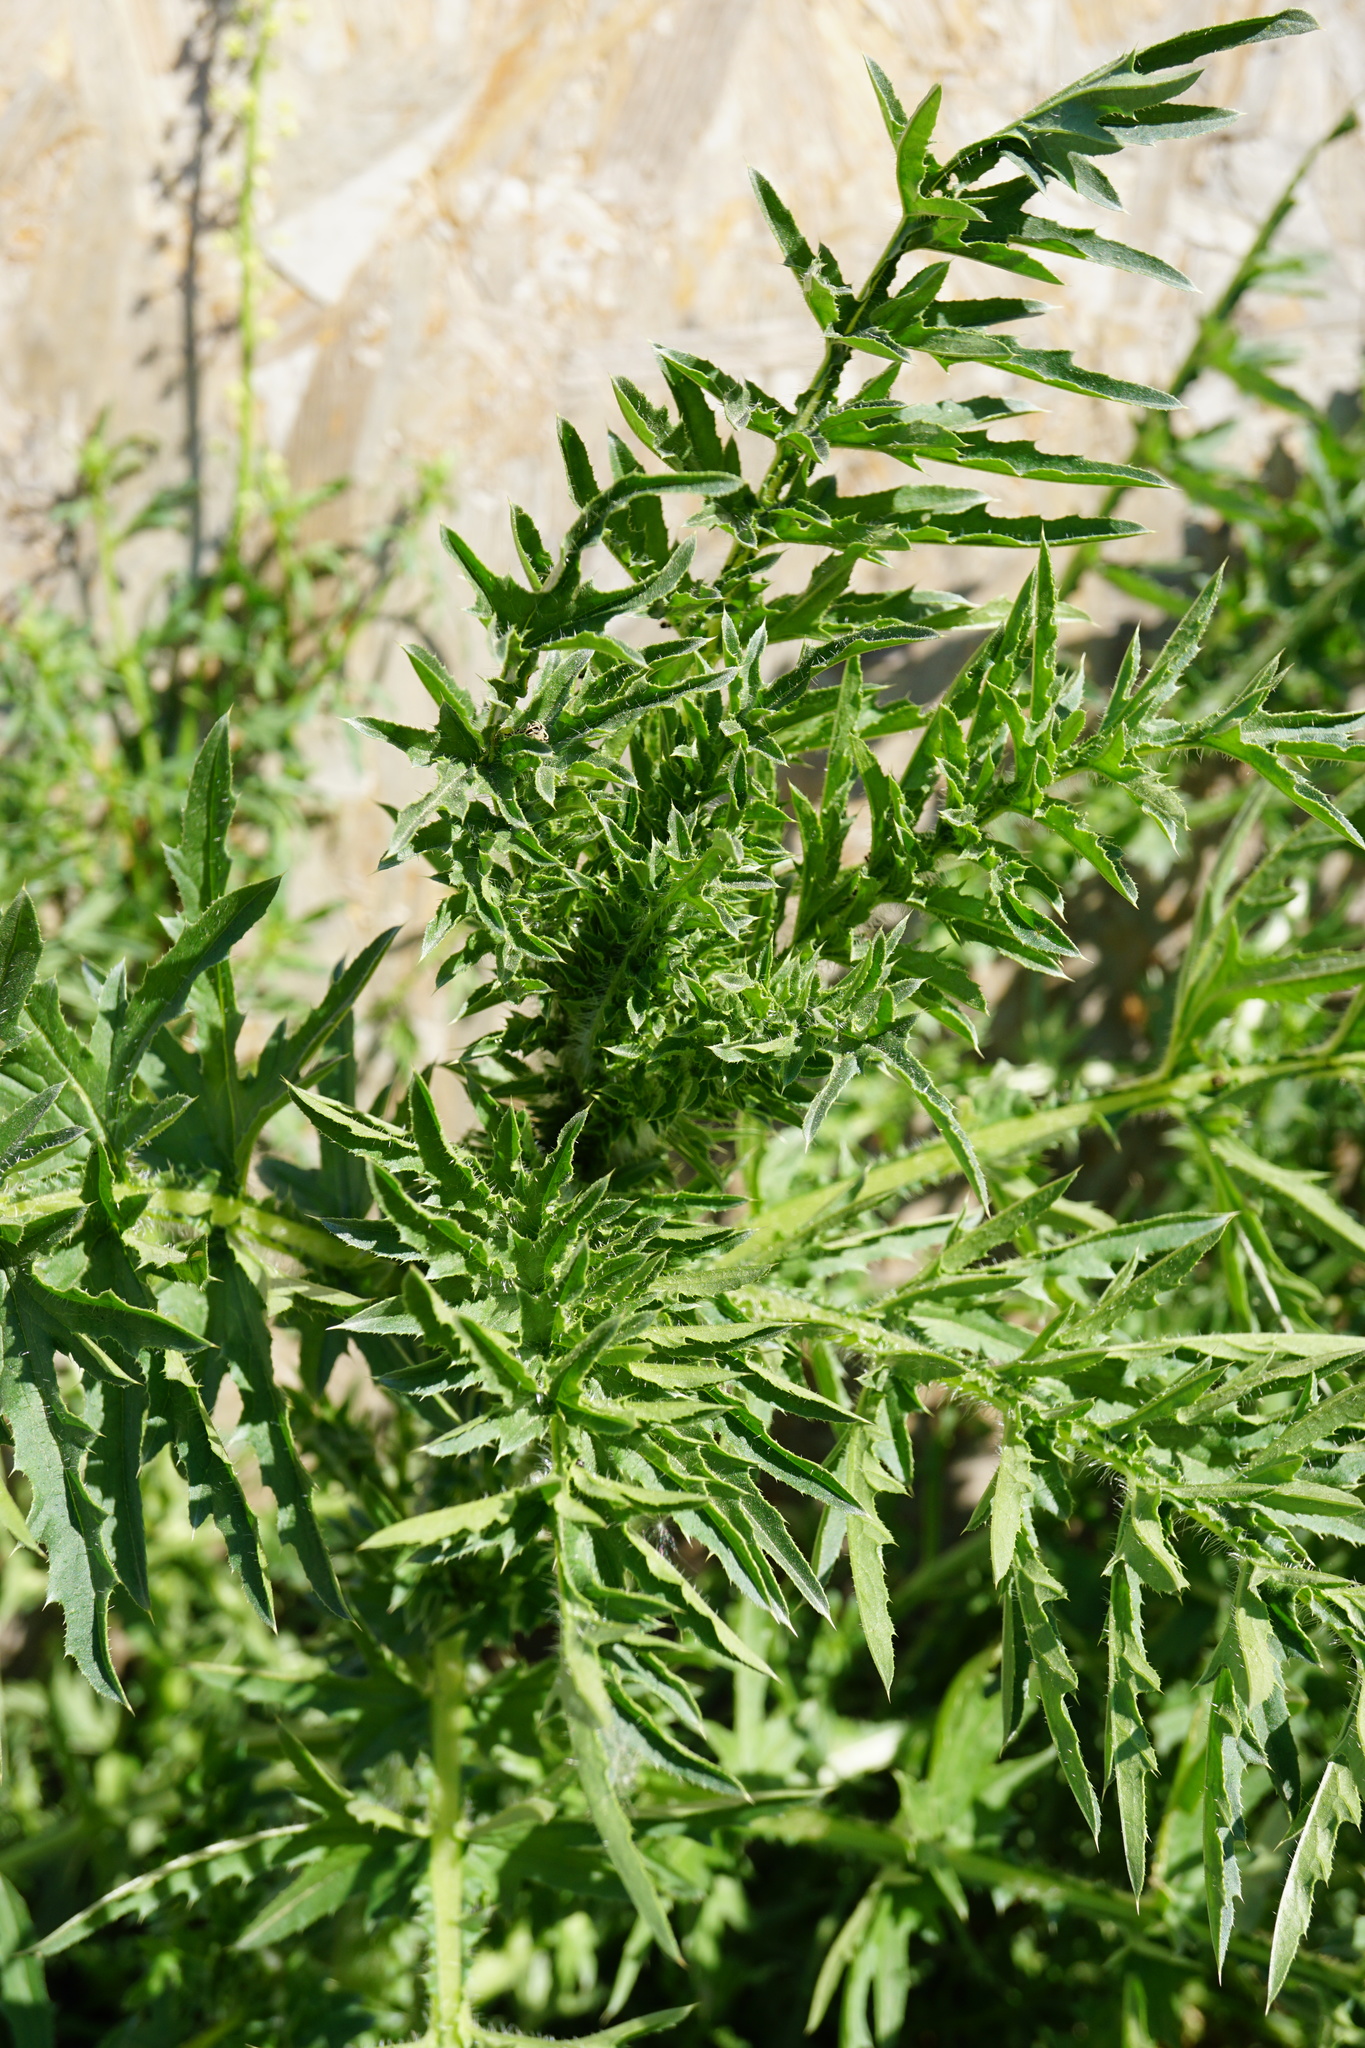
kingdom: Plantae
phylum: Tracheophyta
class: Magnoliopsida
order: Asterales
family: Asteraceae
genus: Carduus
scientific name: Carduus acanthoides
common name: Plumeless thistle
